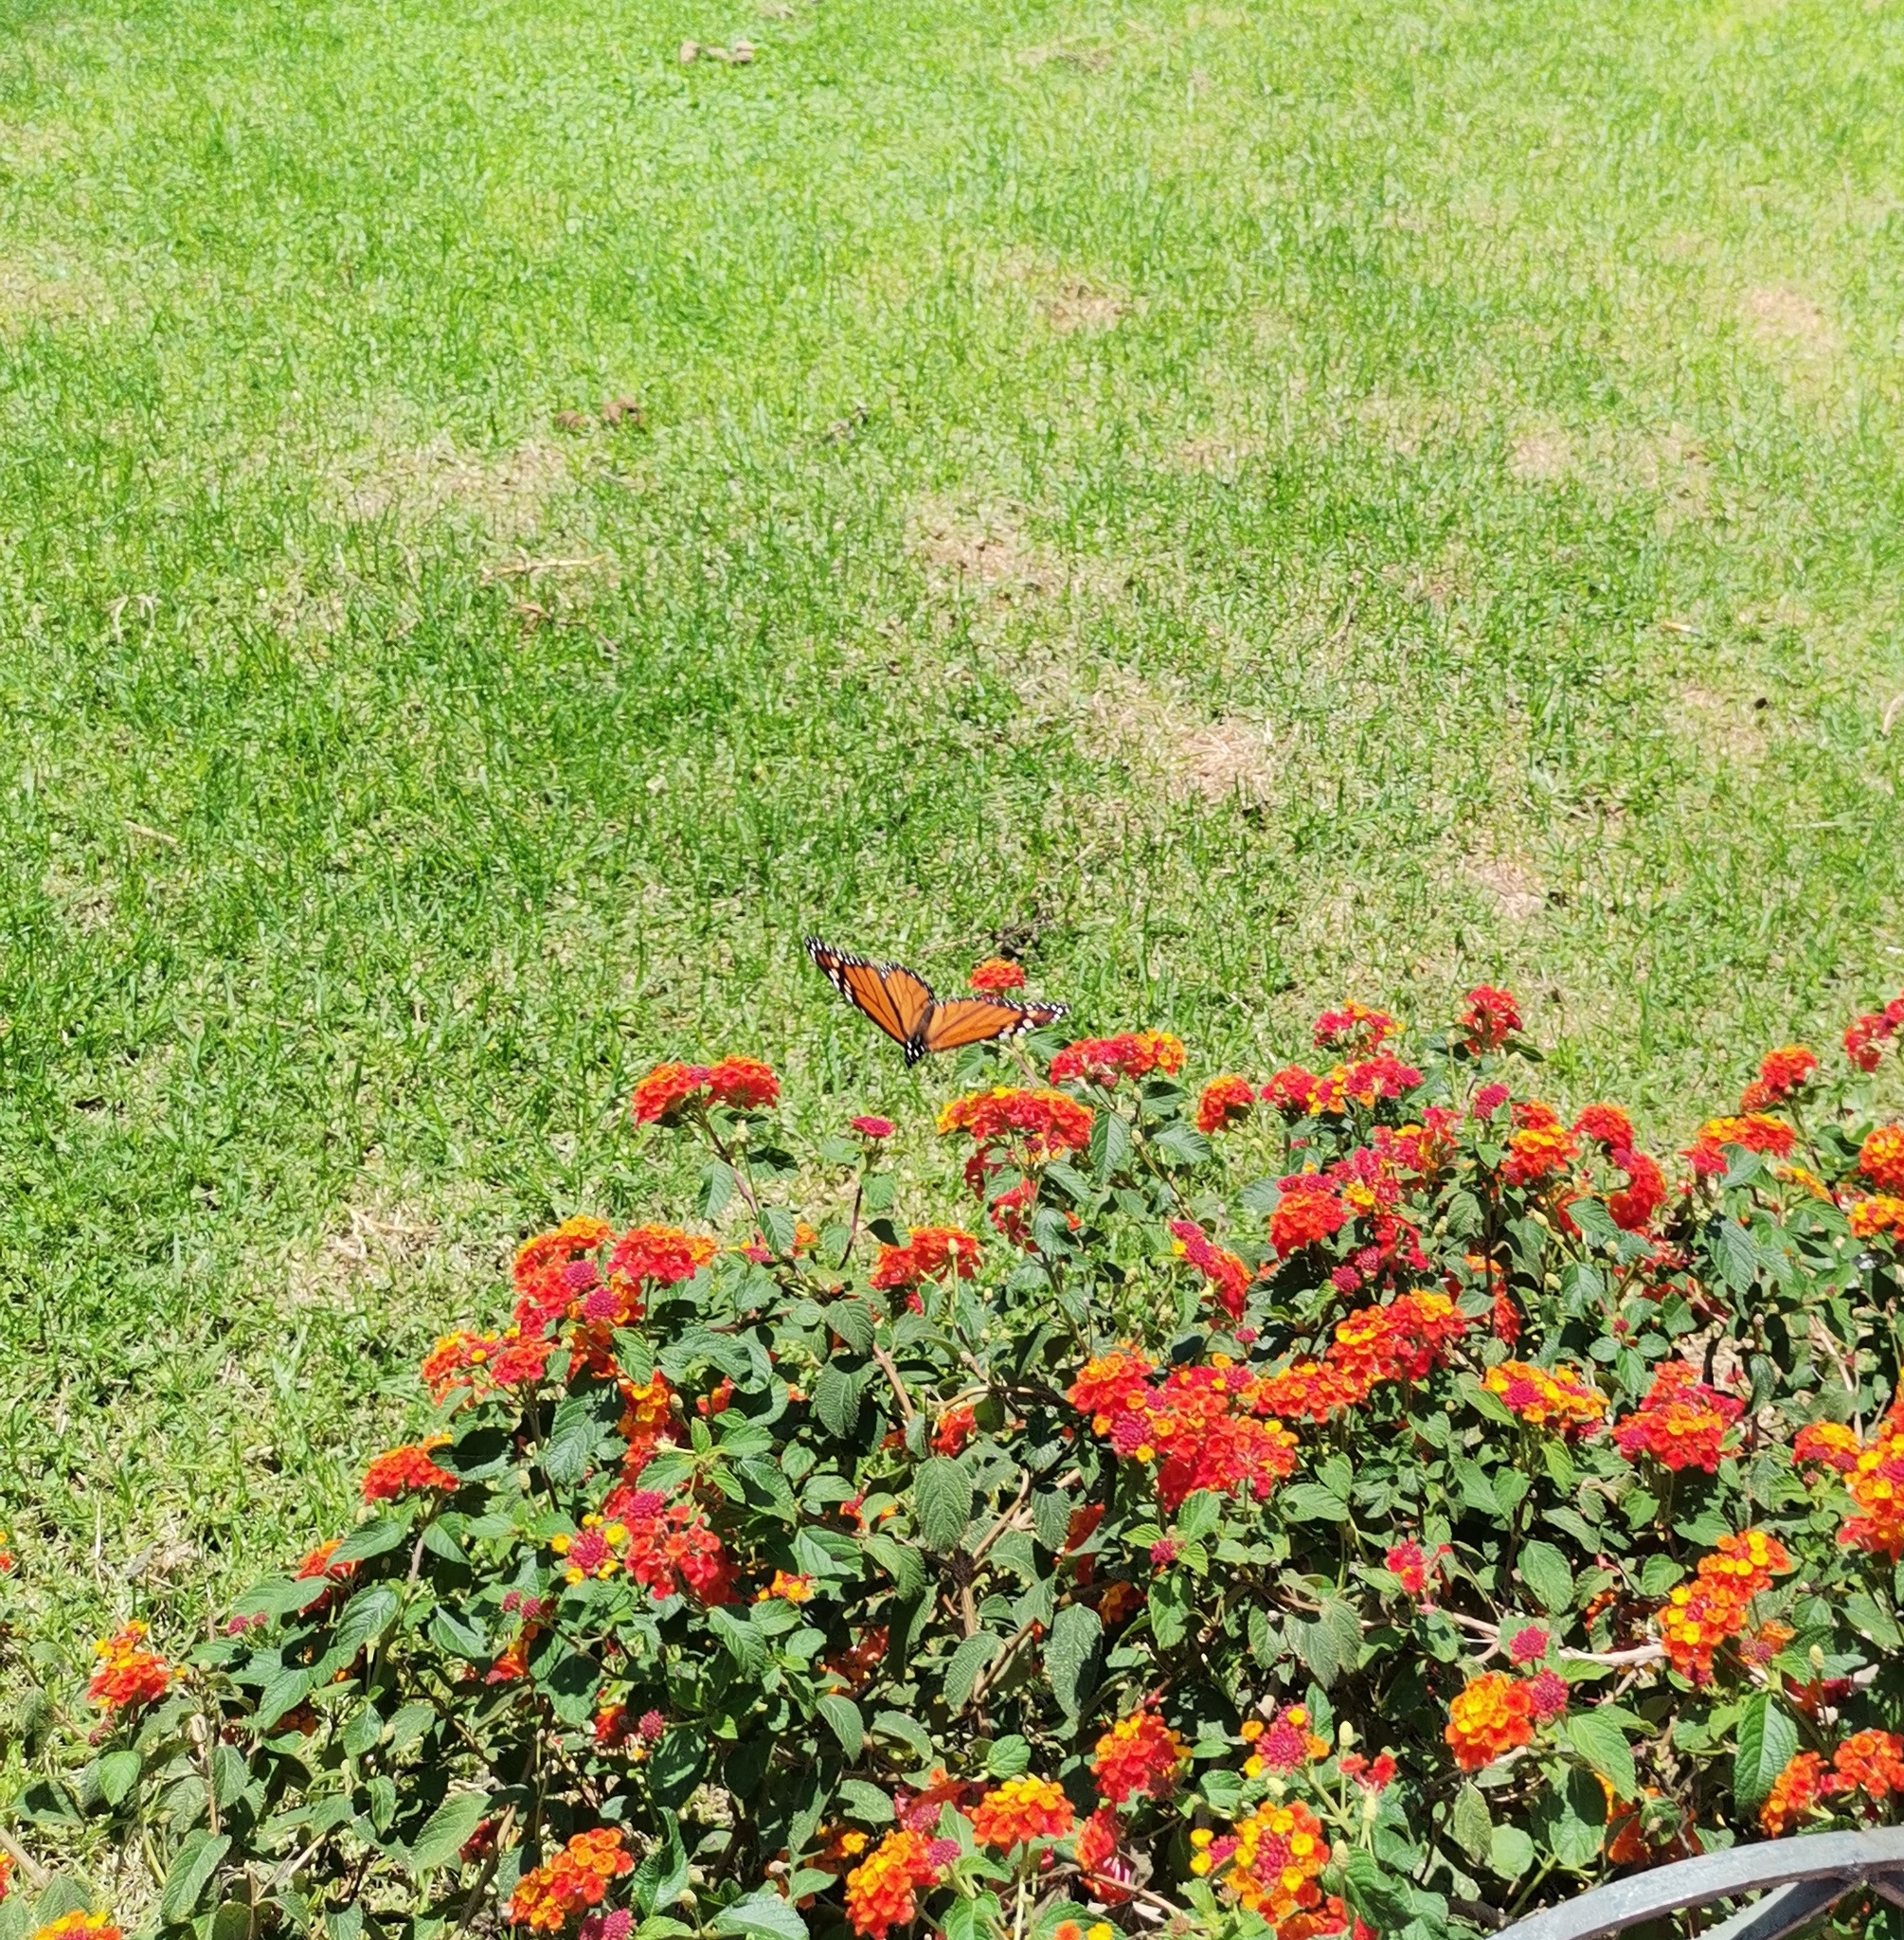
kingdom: Animalia
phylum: Arthropoda
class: Insecta
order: Lepidoptera
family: Nymphalidae
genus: Danaus
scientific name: Danaus plexippus
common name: Monarch
